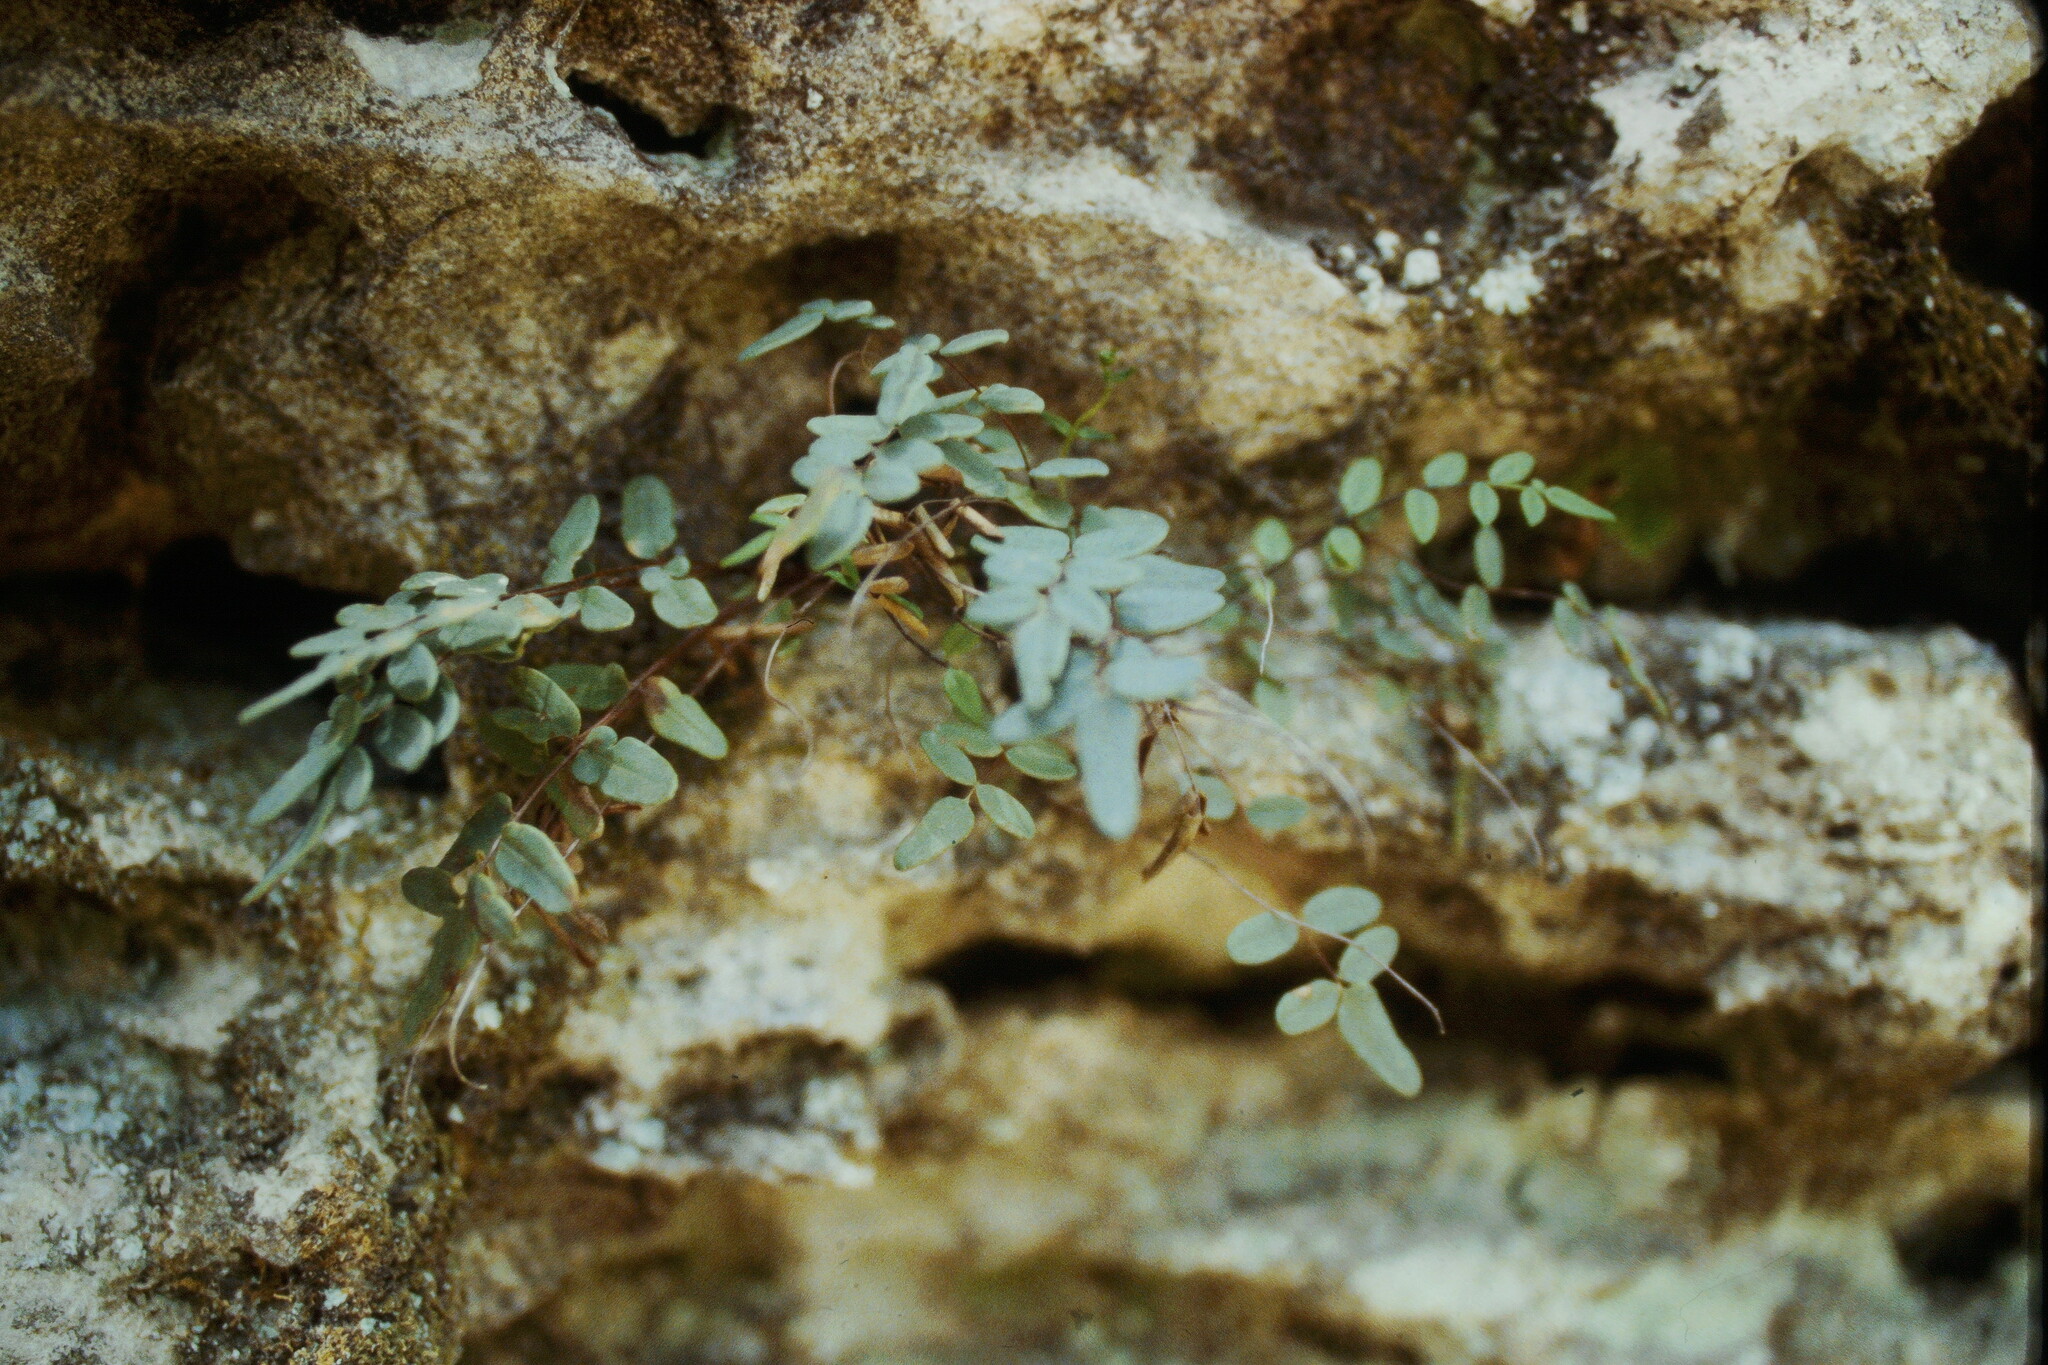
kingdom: Plantae
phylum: Tracheophyta
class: Polypodiopsida
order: Polypodiales
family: Pteridaceae
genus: Pellaea
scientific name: Pellaea glabella
